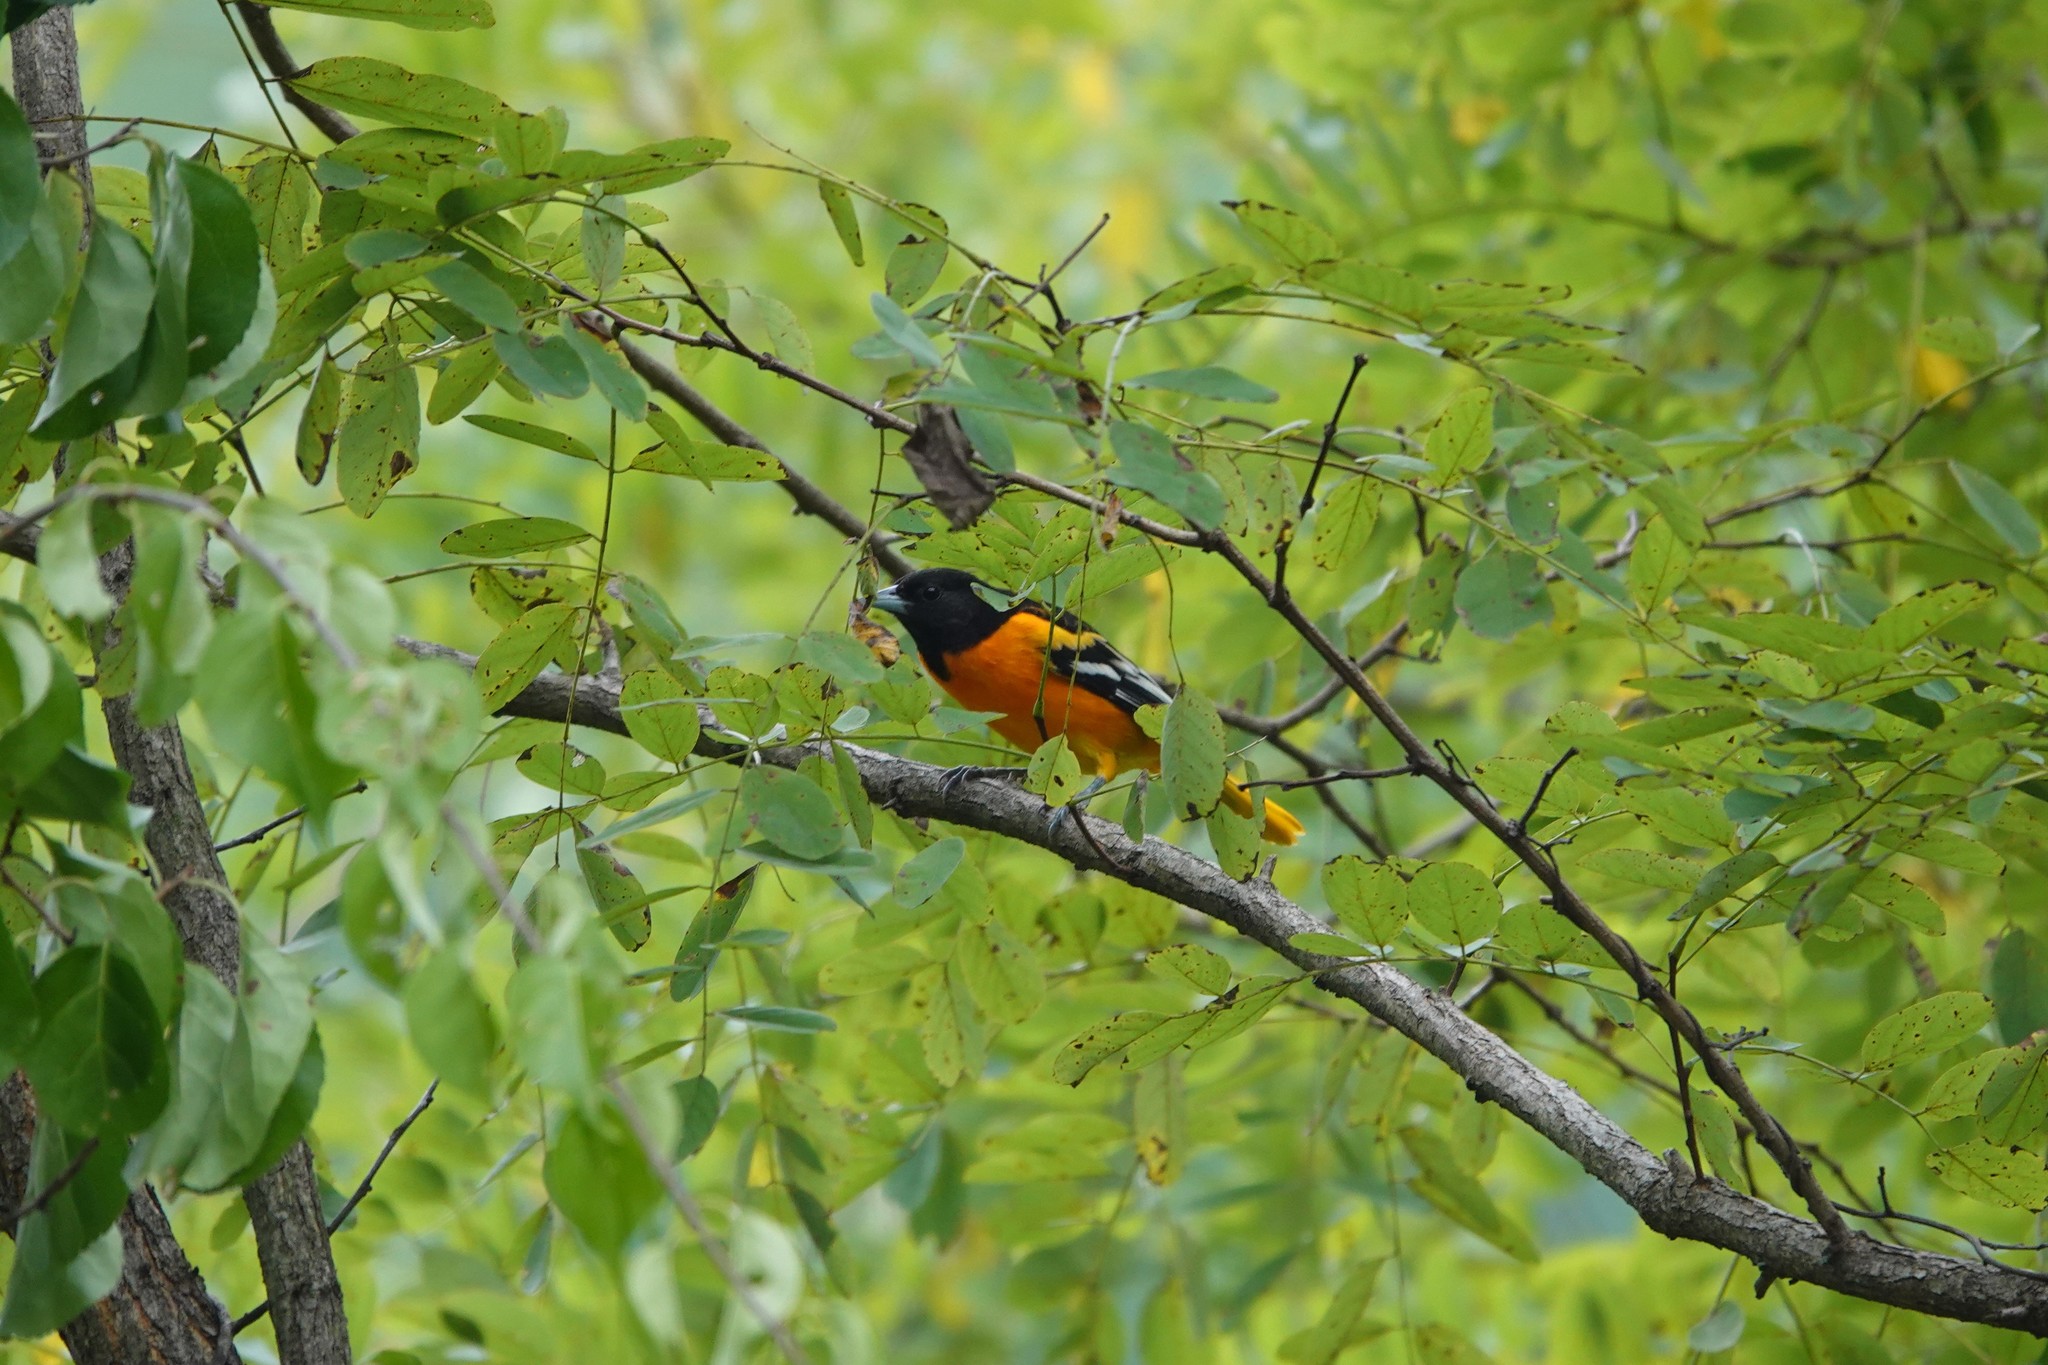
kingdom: Animalia
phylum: Chordata
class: Aves
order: Passeriformes
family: Icteridae
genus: Icterus
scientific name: Icterus galbula
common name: Baltimore oriole
